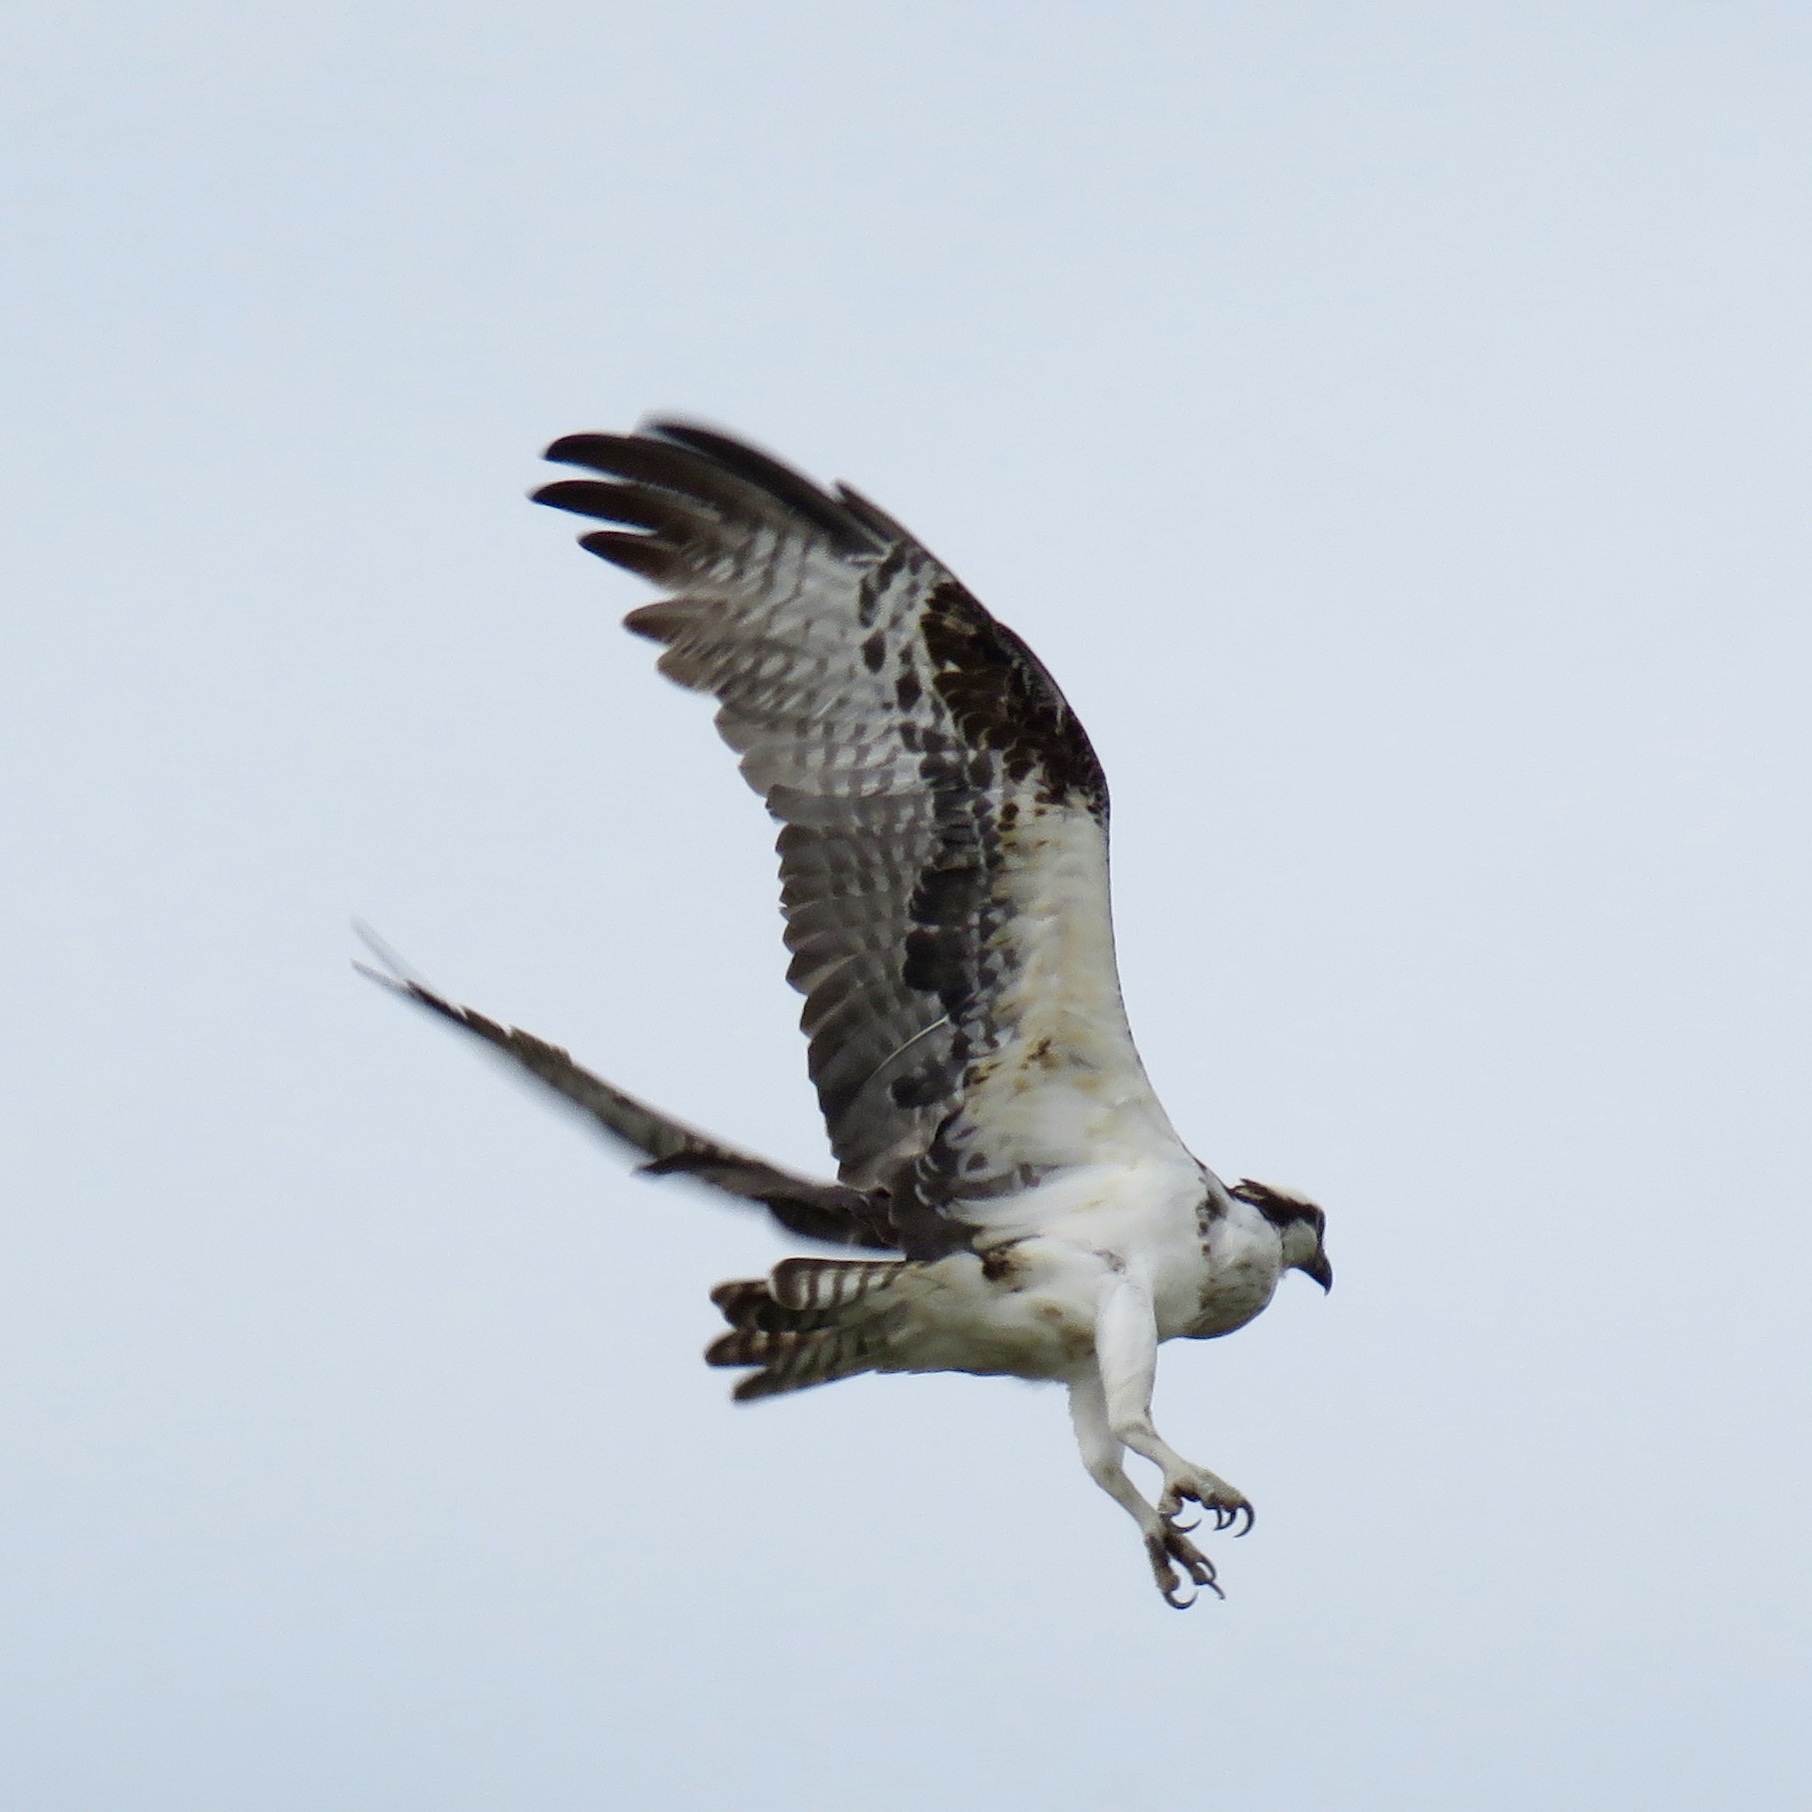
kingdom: Animalia
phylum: Chordata
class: Aves
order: Accipitriformes
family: Pandionidae
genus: Pandion
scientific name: Pandion haliaetus
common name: Osprey
